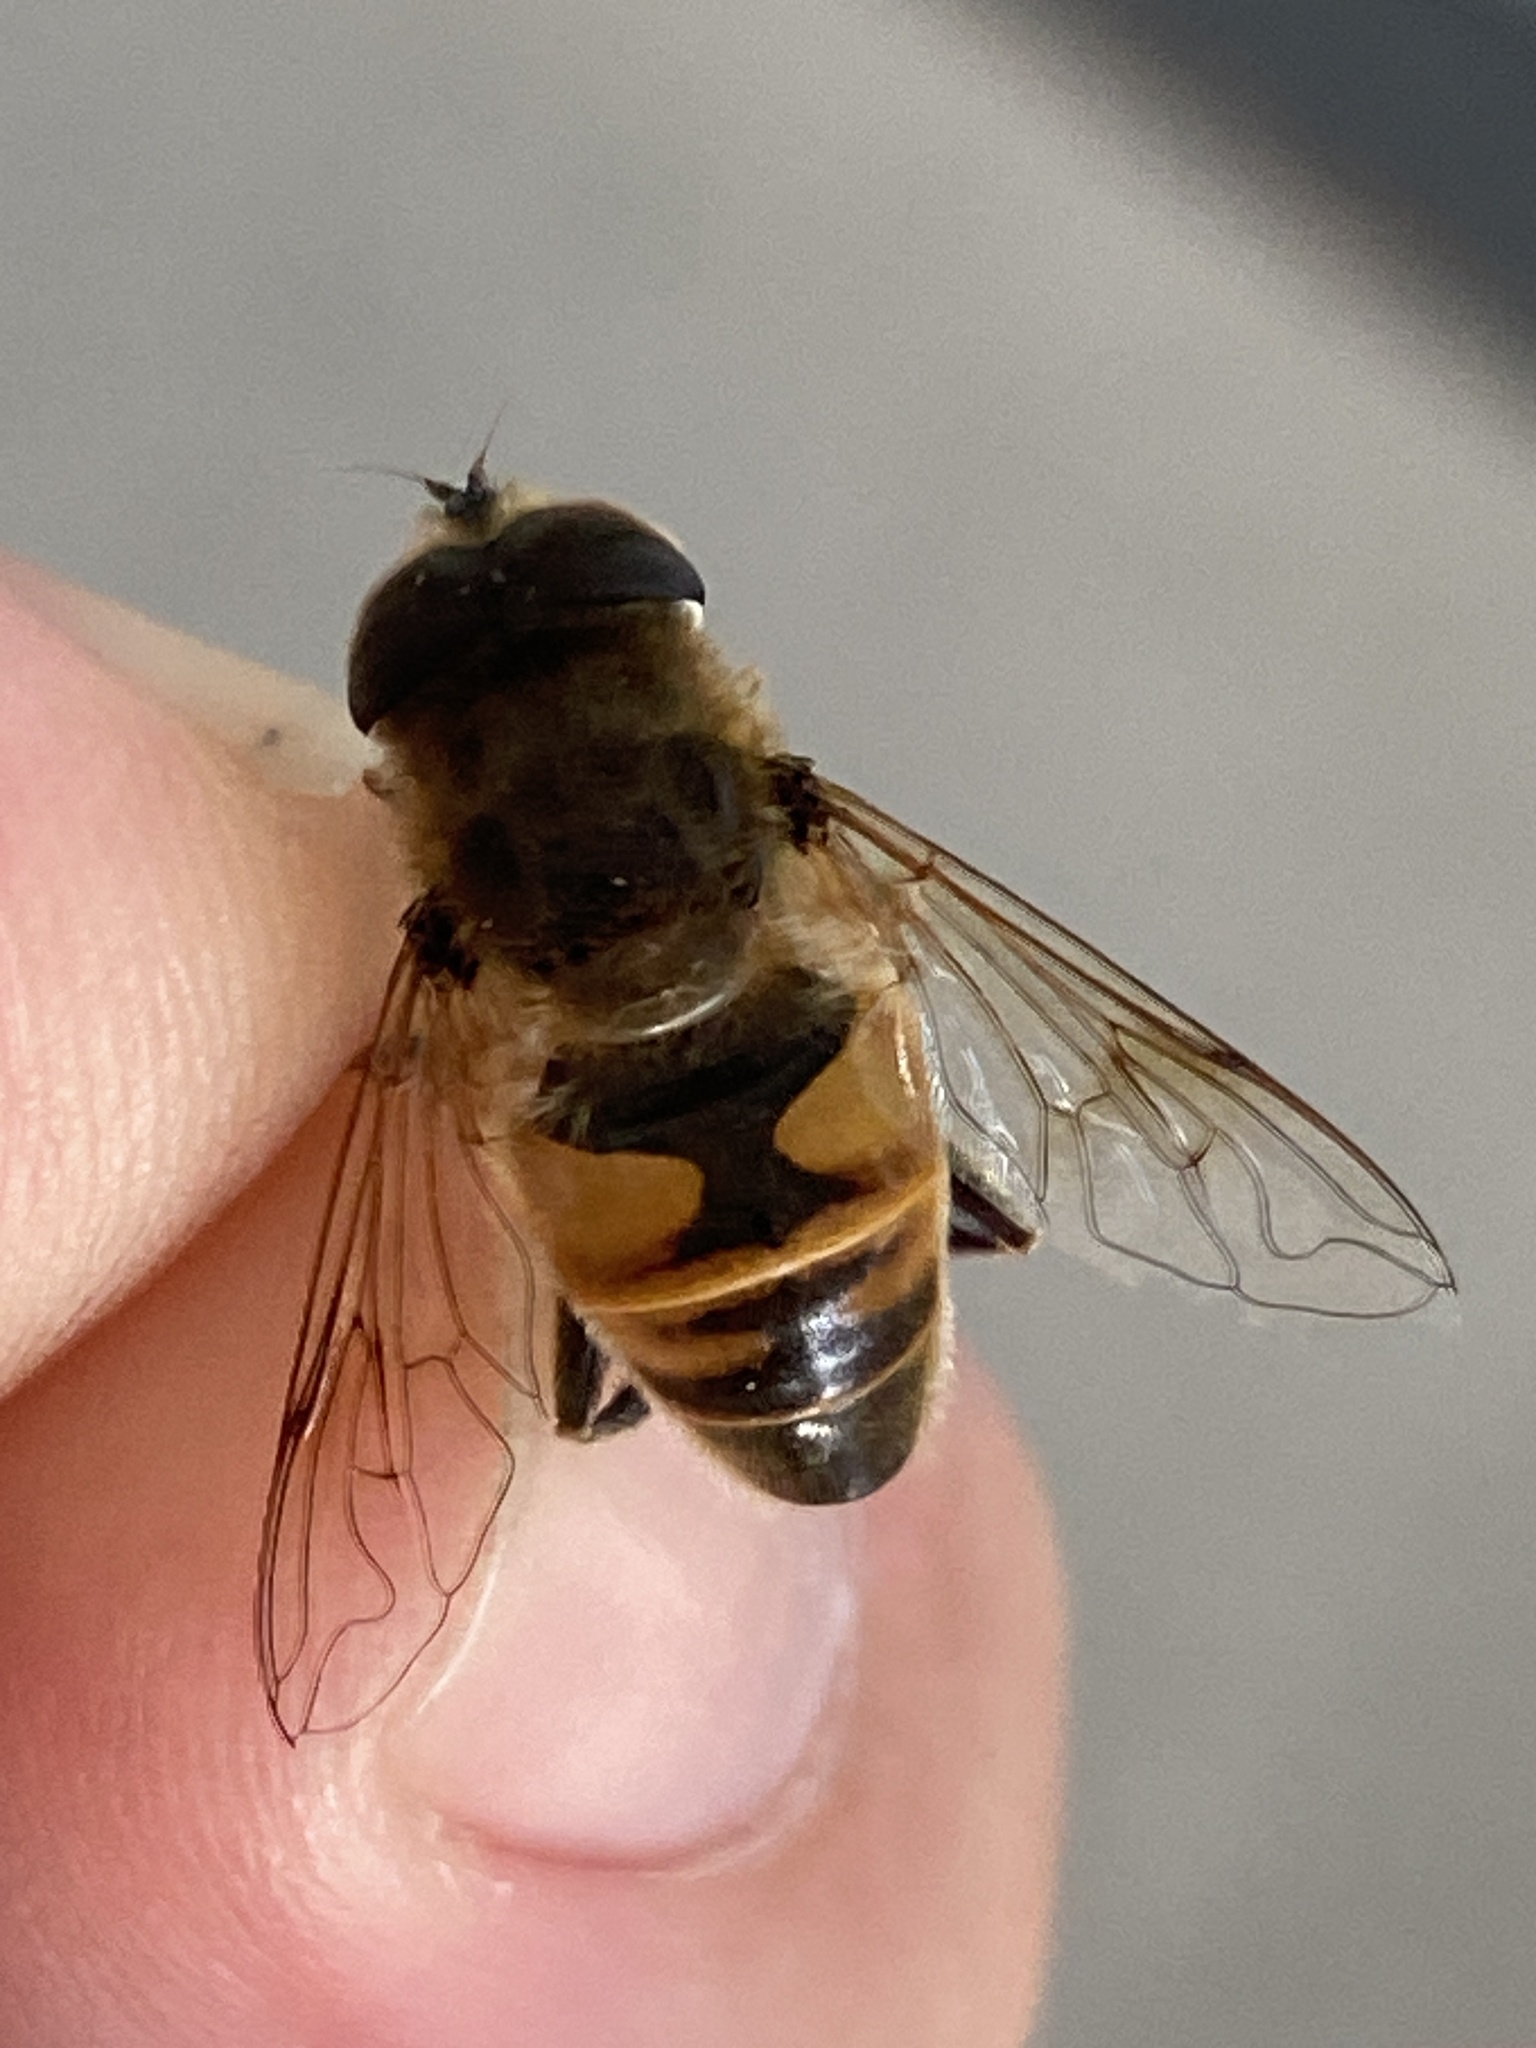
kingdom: Animalia
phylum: Arthropoda
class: Insecta
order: Diptera
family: Syrphidae
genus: Eristalis
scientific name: Eristalis tenax
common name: Drone fly
